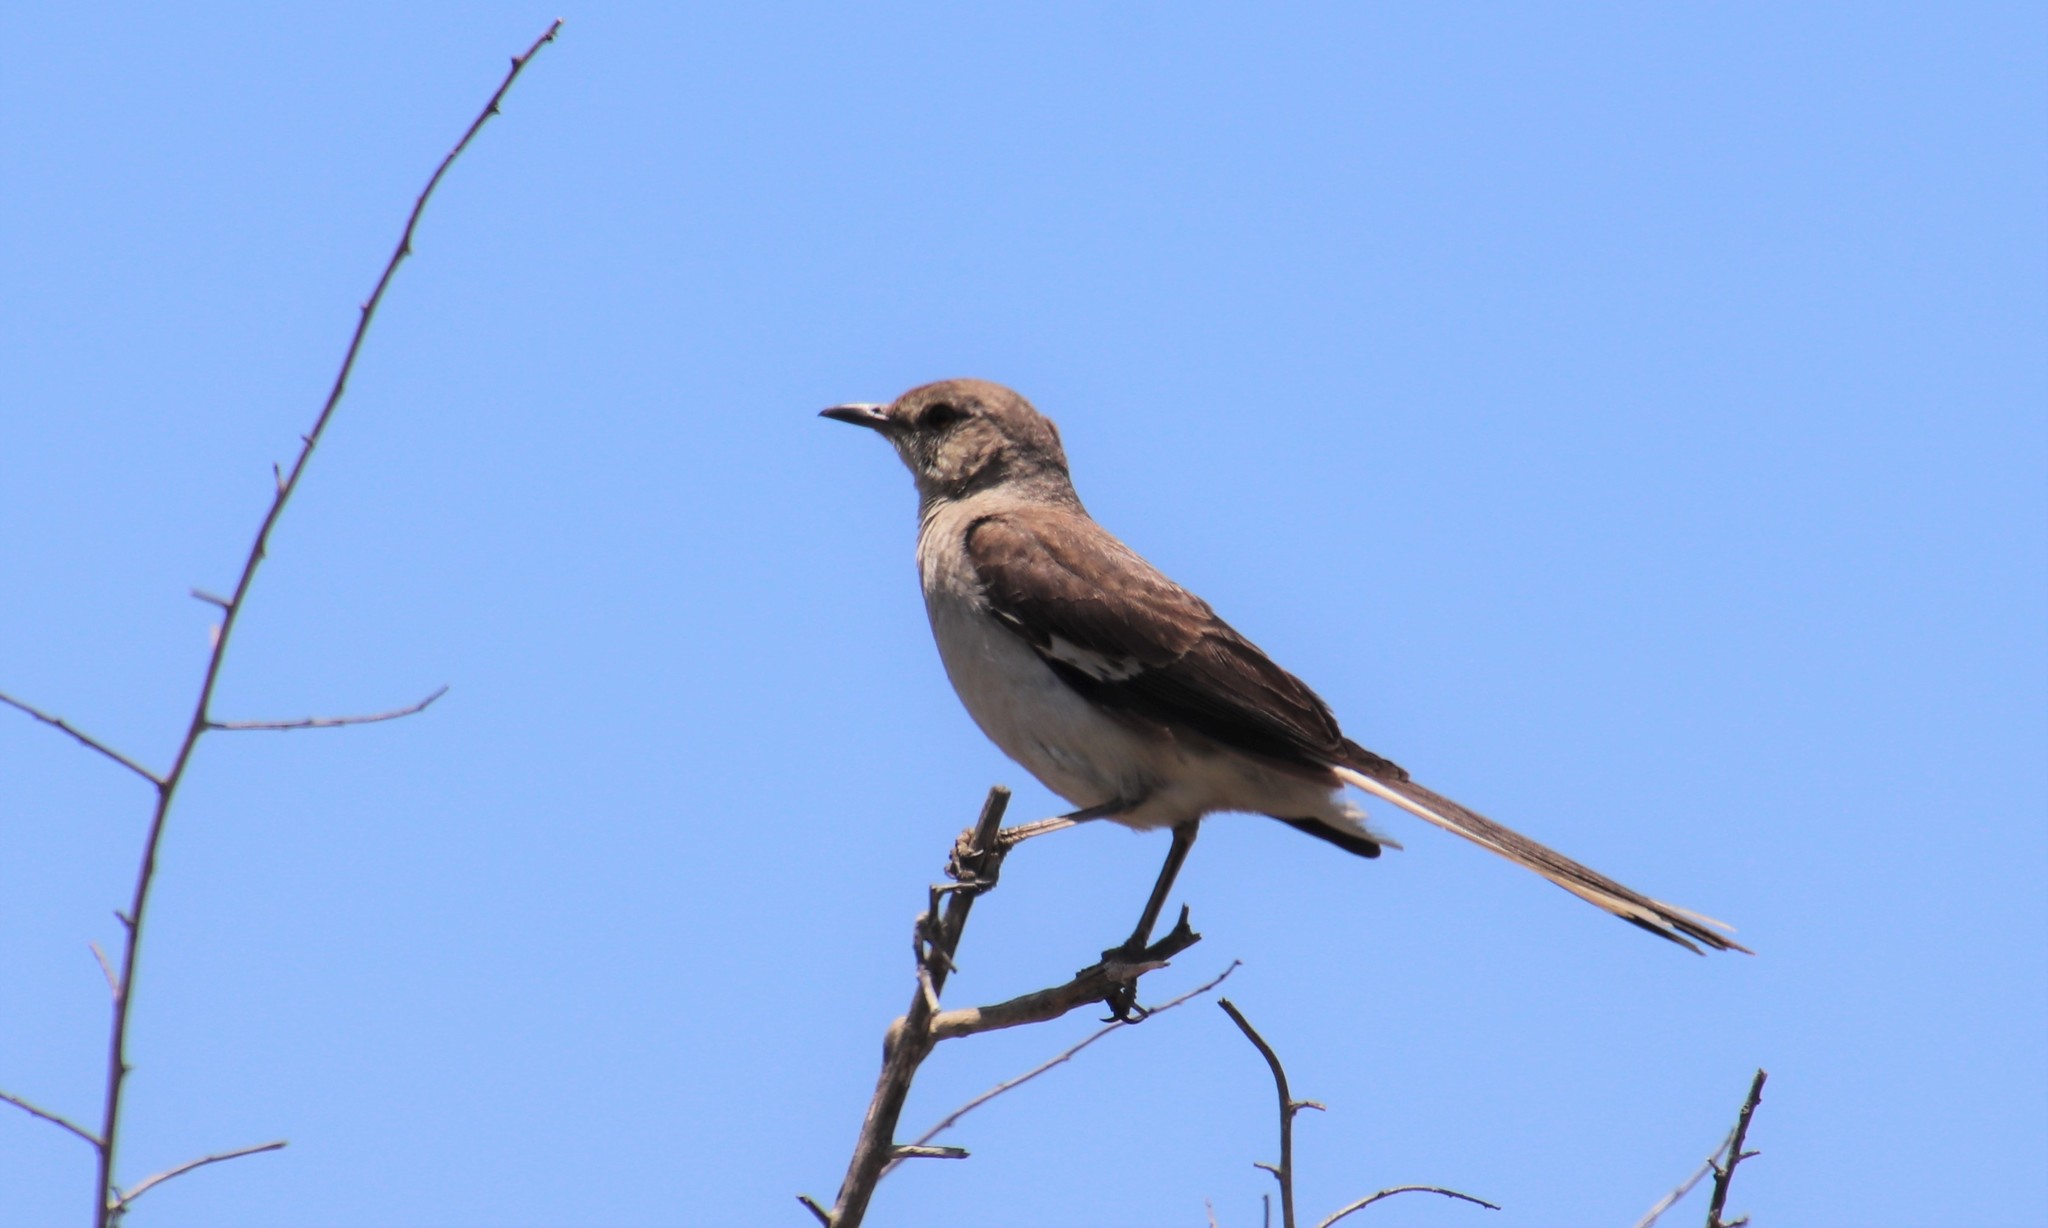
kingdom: Animalia
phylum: Chordata
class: Aves
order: Passeriformes
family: Mimidae
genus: Mimus
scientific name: Mimus polyglottos
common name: Northern mockingbird
